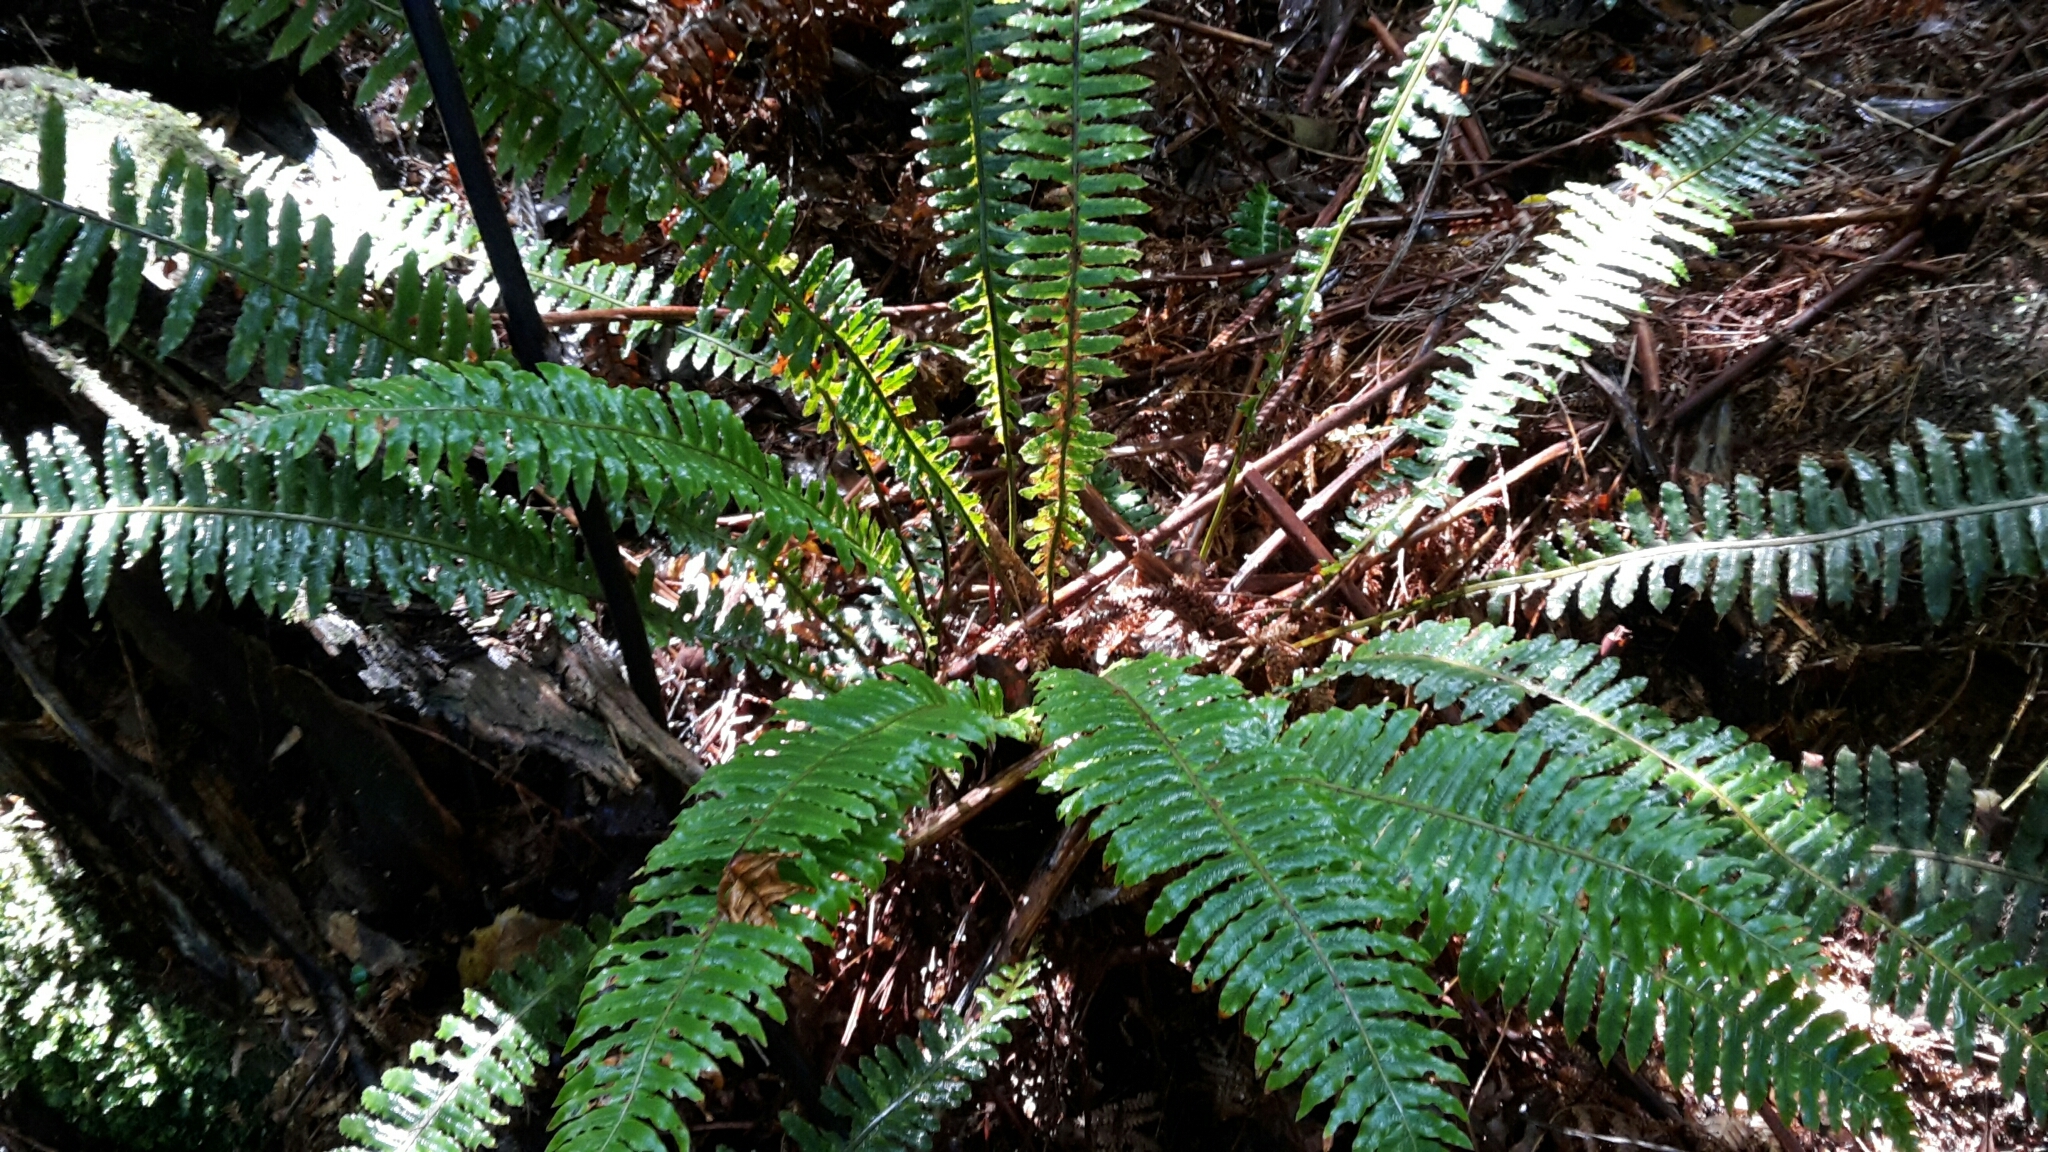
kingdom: Plantae
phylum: Tracheophyta
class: Polypodiopsida
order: Polypodiales
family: Blechnaceae
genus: Lomaria
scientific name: Lomaria discolor
